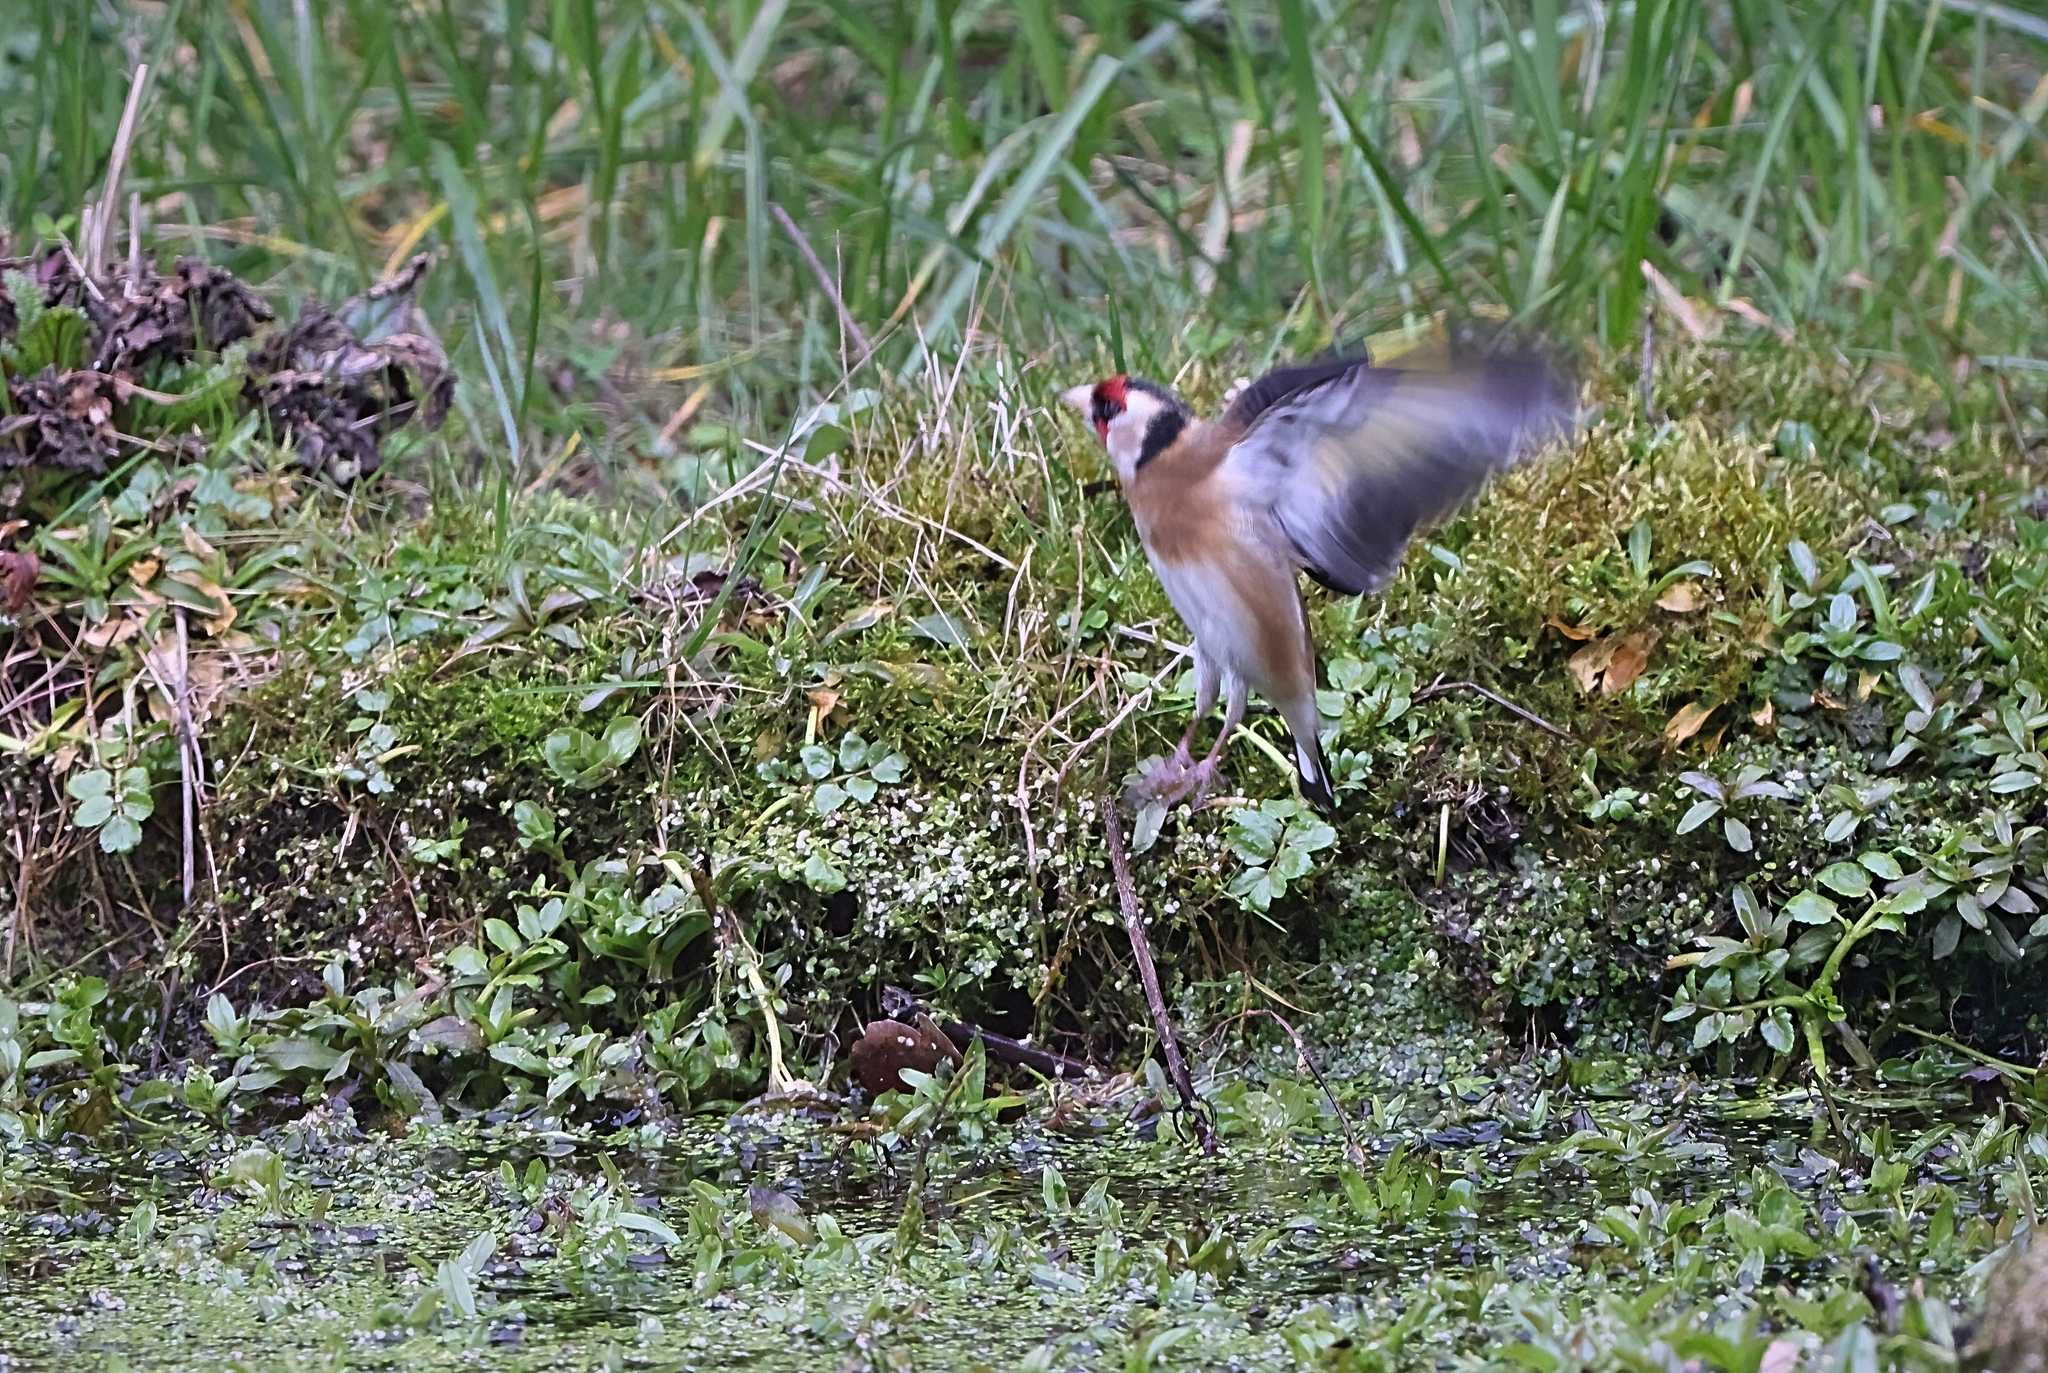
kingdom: Animalia
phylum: Chordata
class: Aves
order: Passeriformes
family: Fringillidae
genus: Carduelis
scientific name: Carduelis carduelis
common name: European goldfinch
